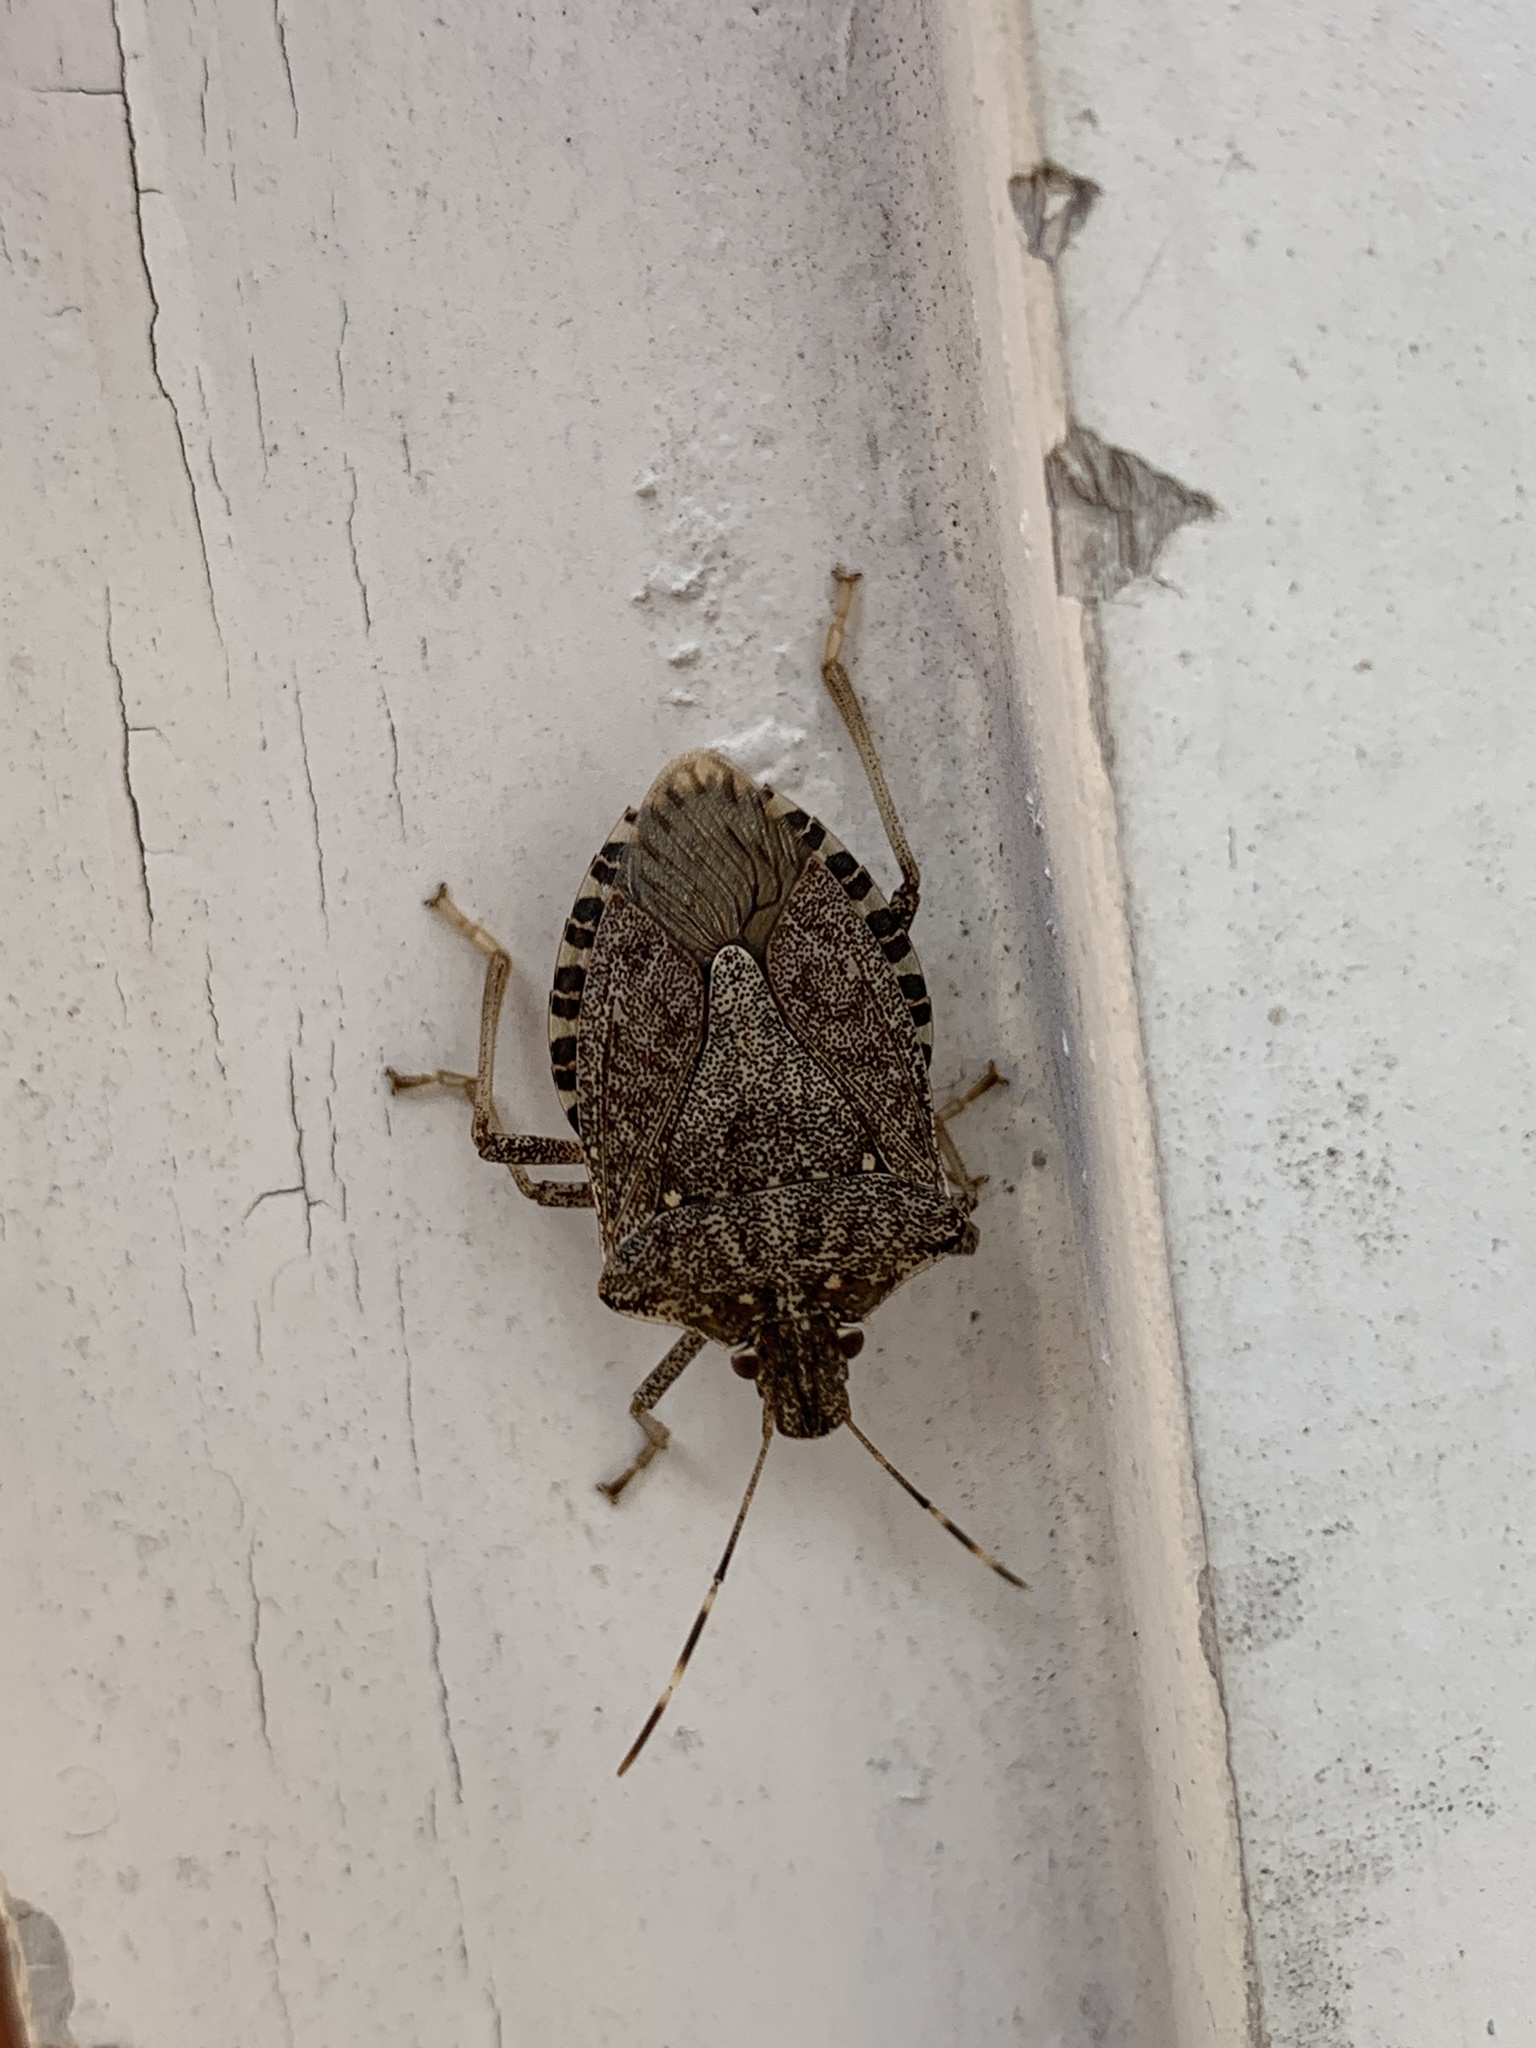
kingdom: Animalia
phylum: Arthropoda
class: Insecta
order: Hemiptera
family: Pentatomidae
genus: Halyomorpha
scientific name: Halyomorpha halys
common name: Brown marmorated stink bug
